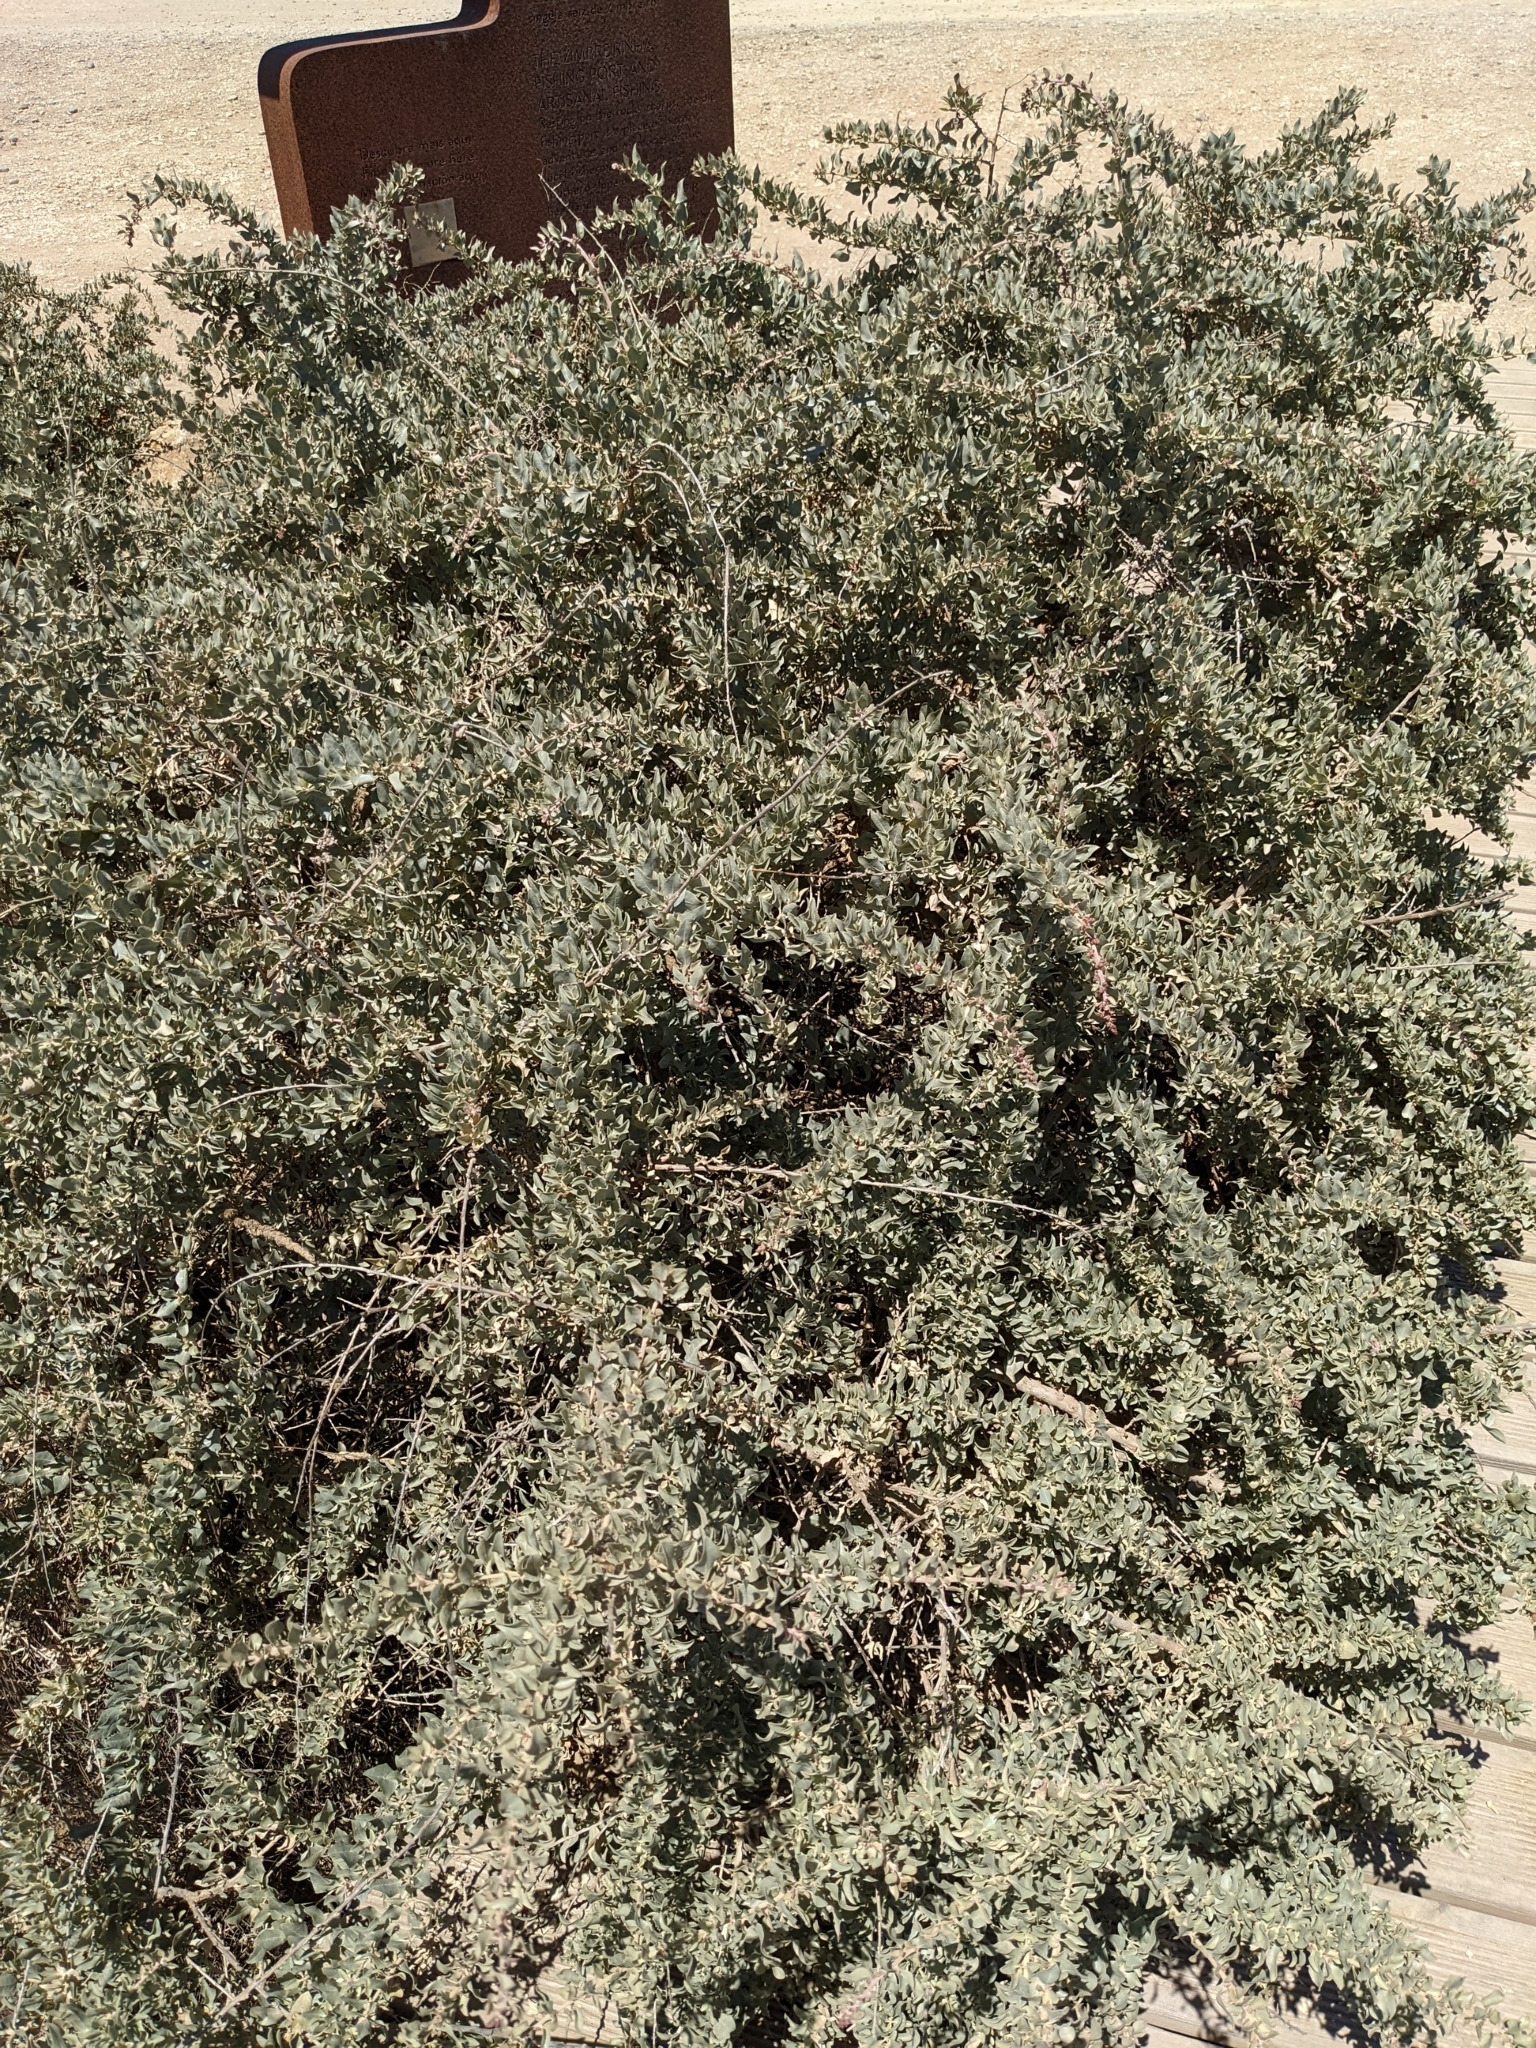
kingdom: Plantae
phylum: Tracheophyta
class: Magnoliopsida
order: Caryophyllales
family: Amaranthaceae
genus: Atriplex
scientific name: Atriplex halimus
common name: Shrubby orache
